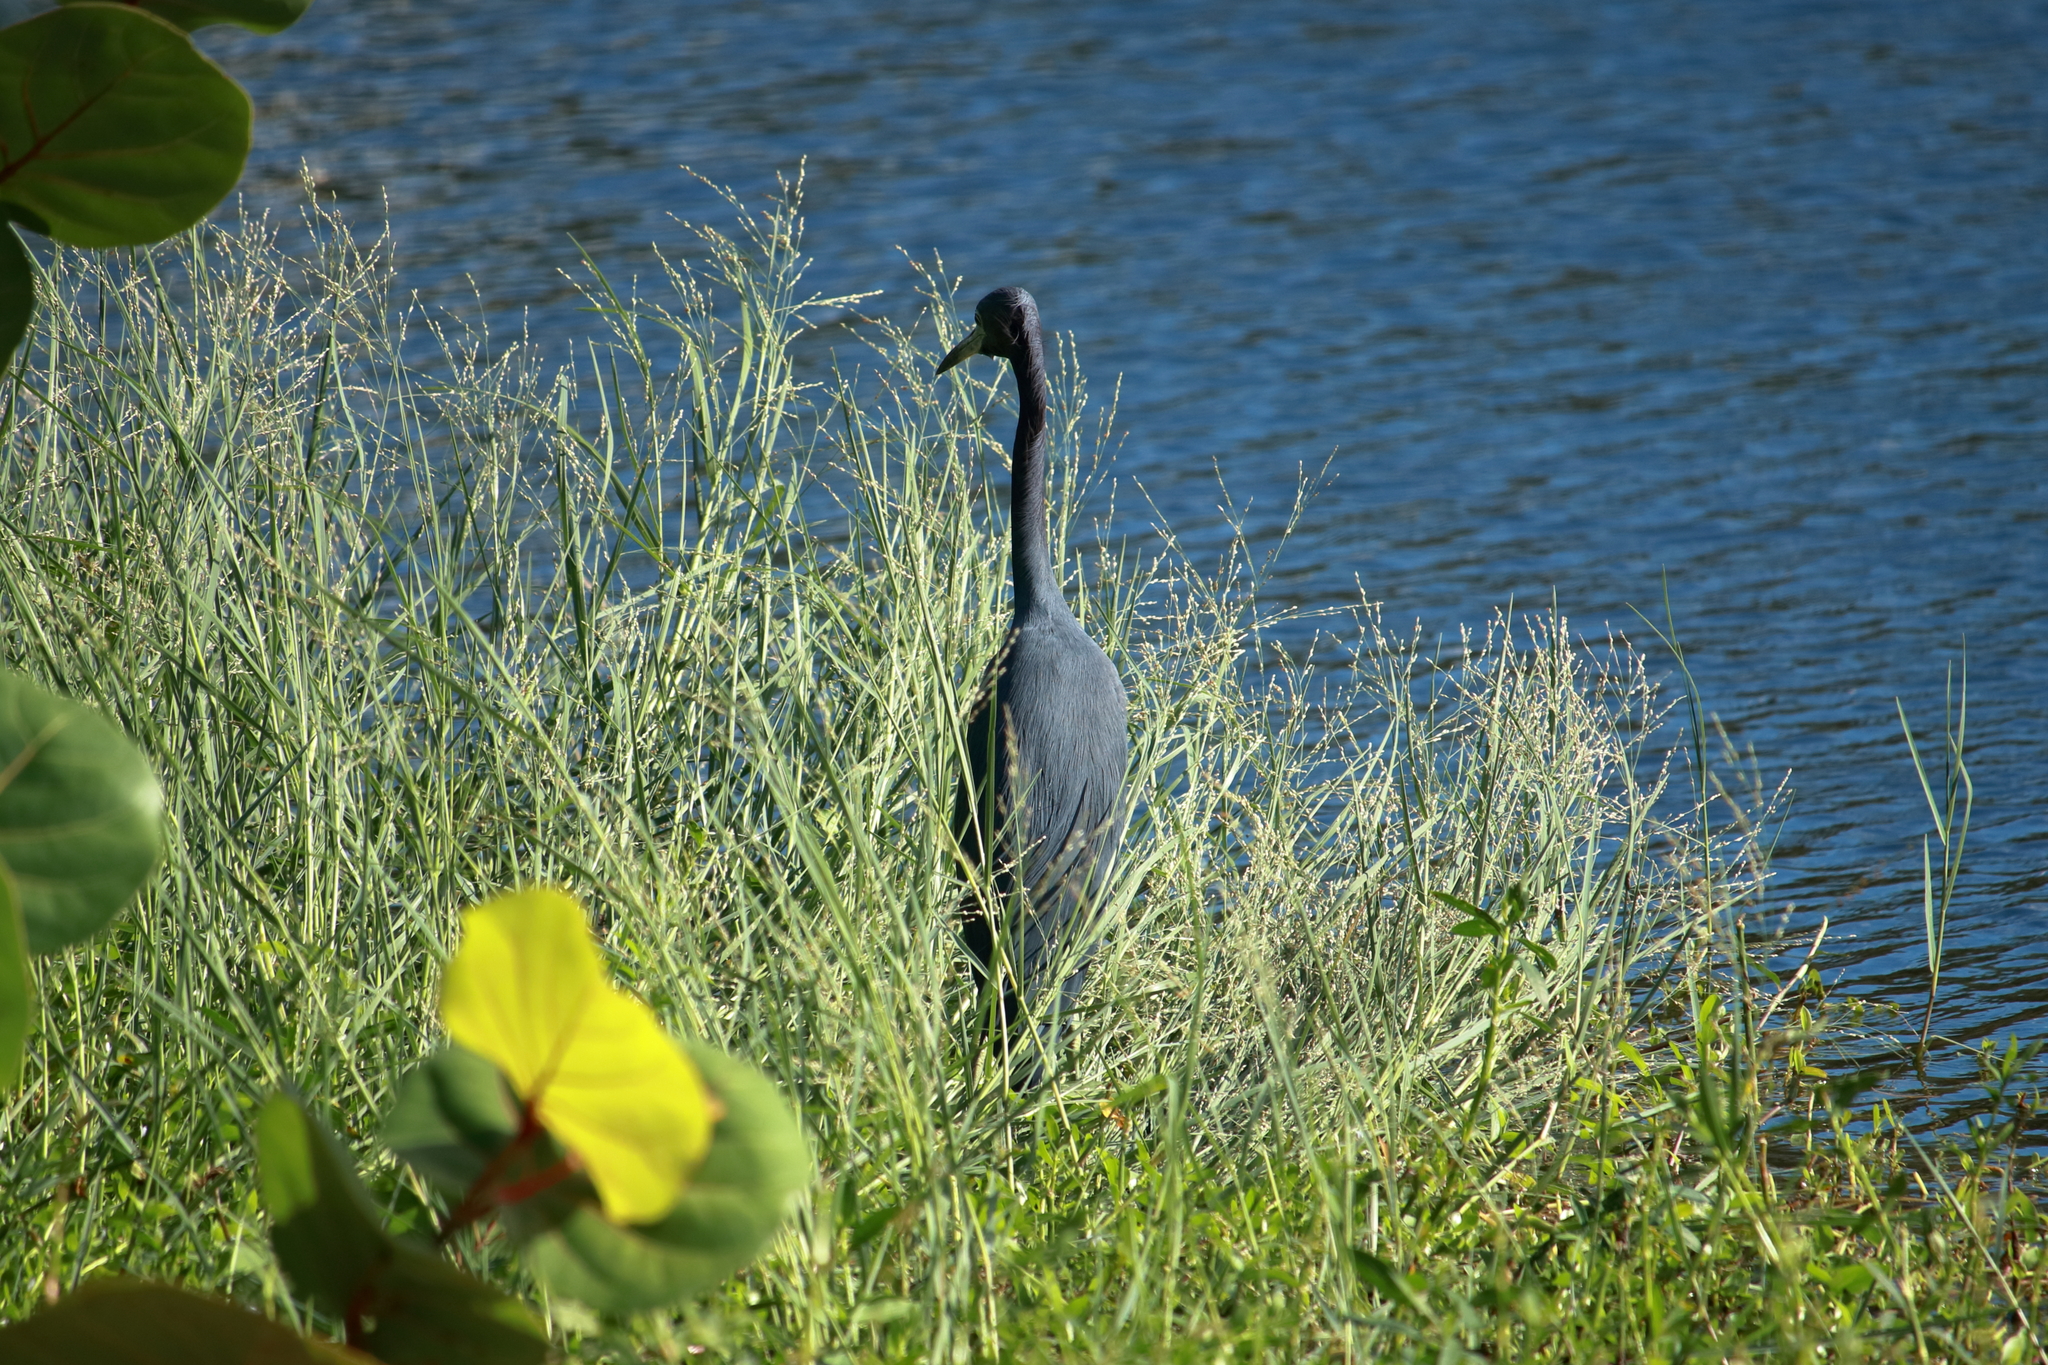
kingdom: Animalia
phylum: Chordata
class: Aves
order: Pelecaniformes
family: Ardeidae
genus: Egretta
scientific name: Egretta caerulea
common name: Little blue heron
